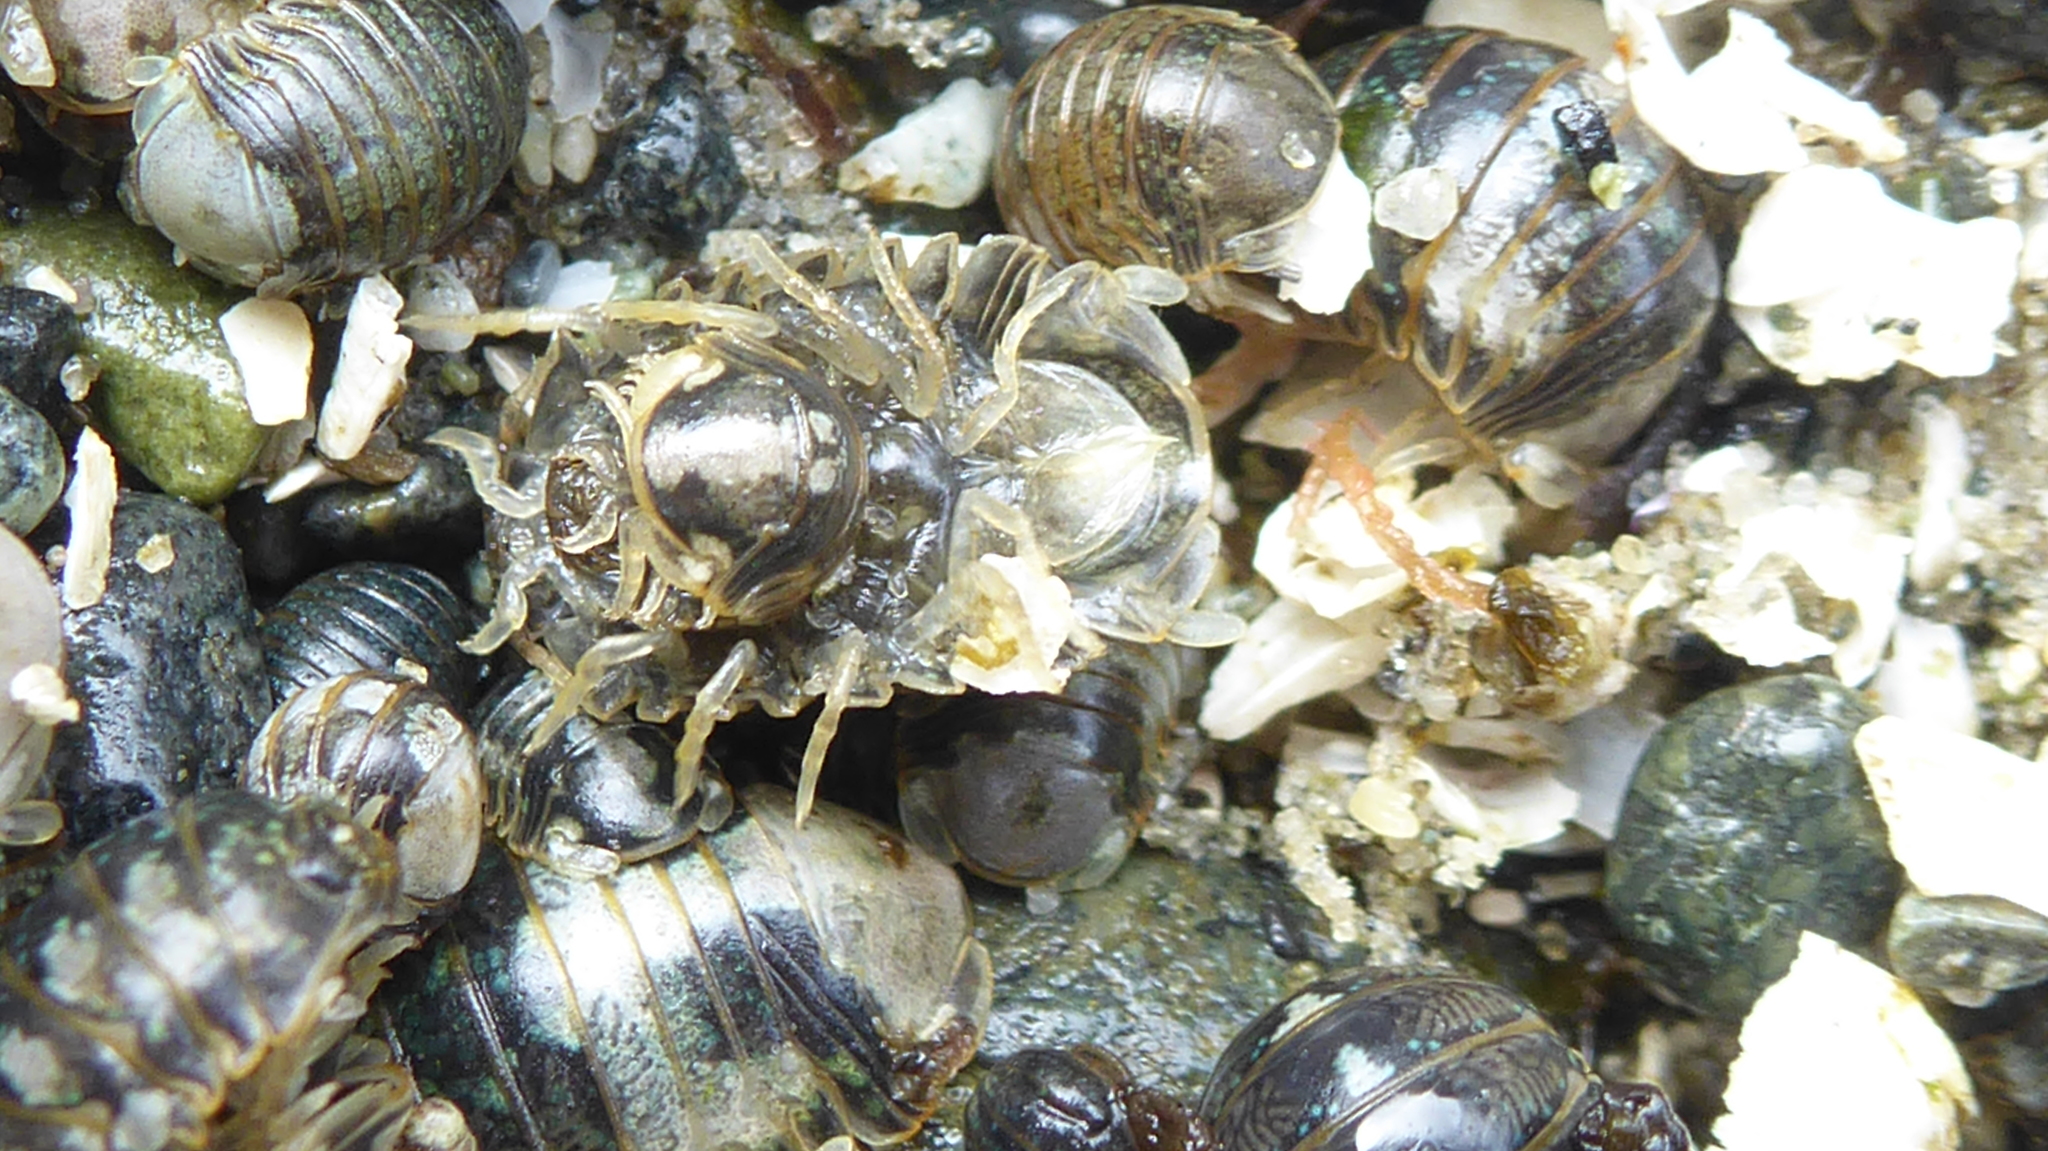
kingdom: Animalia
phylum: Arthropoda
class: Malacostraca
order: Isopoda
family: Sphaeromatidae
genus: Gnorimosphaeroma
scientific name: Gnorimosphaeroma oregonense
